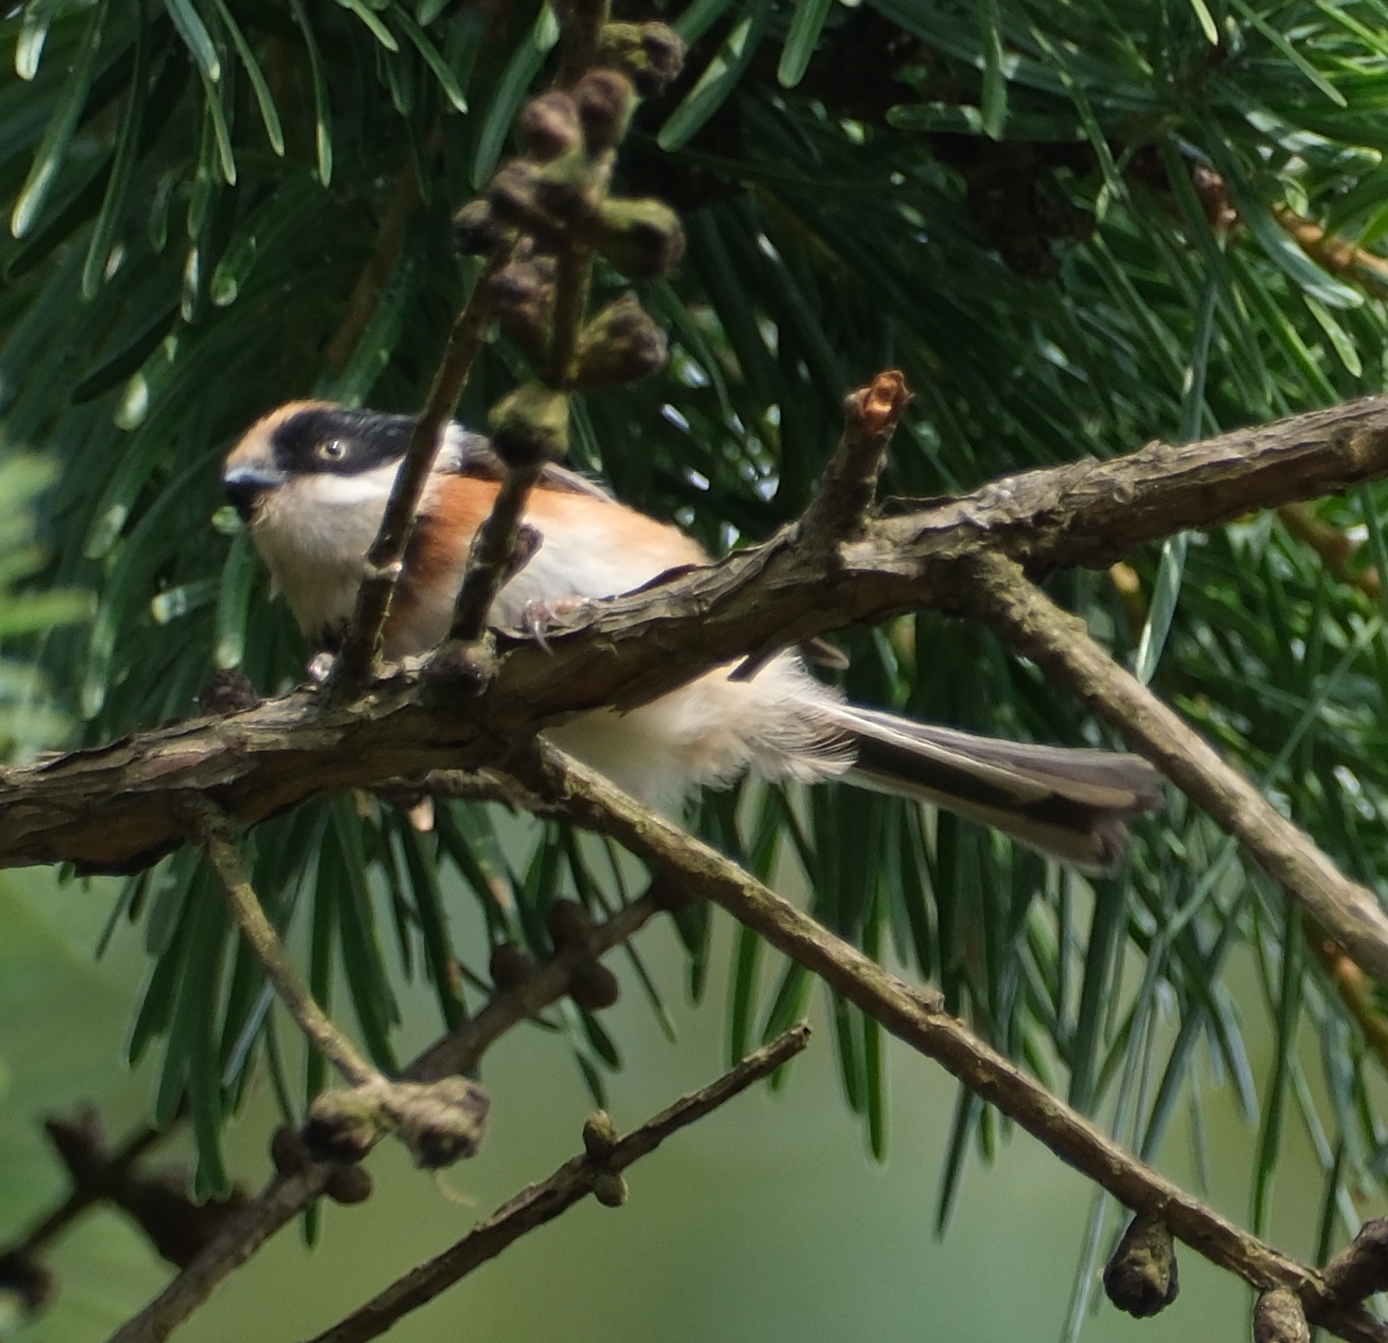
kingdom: Animalia
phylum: Chordata
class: Aves
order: Passeriformes
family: Aegithalidae
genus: Aegithalos
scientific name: Aegithalos concinnus
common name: Black-throated bushtit
